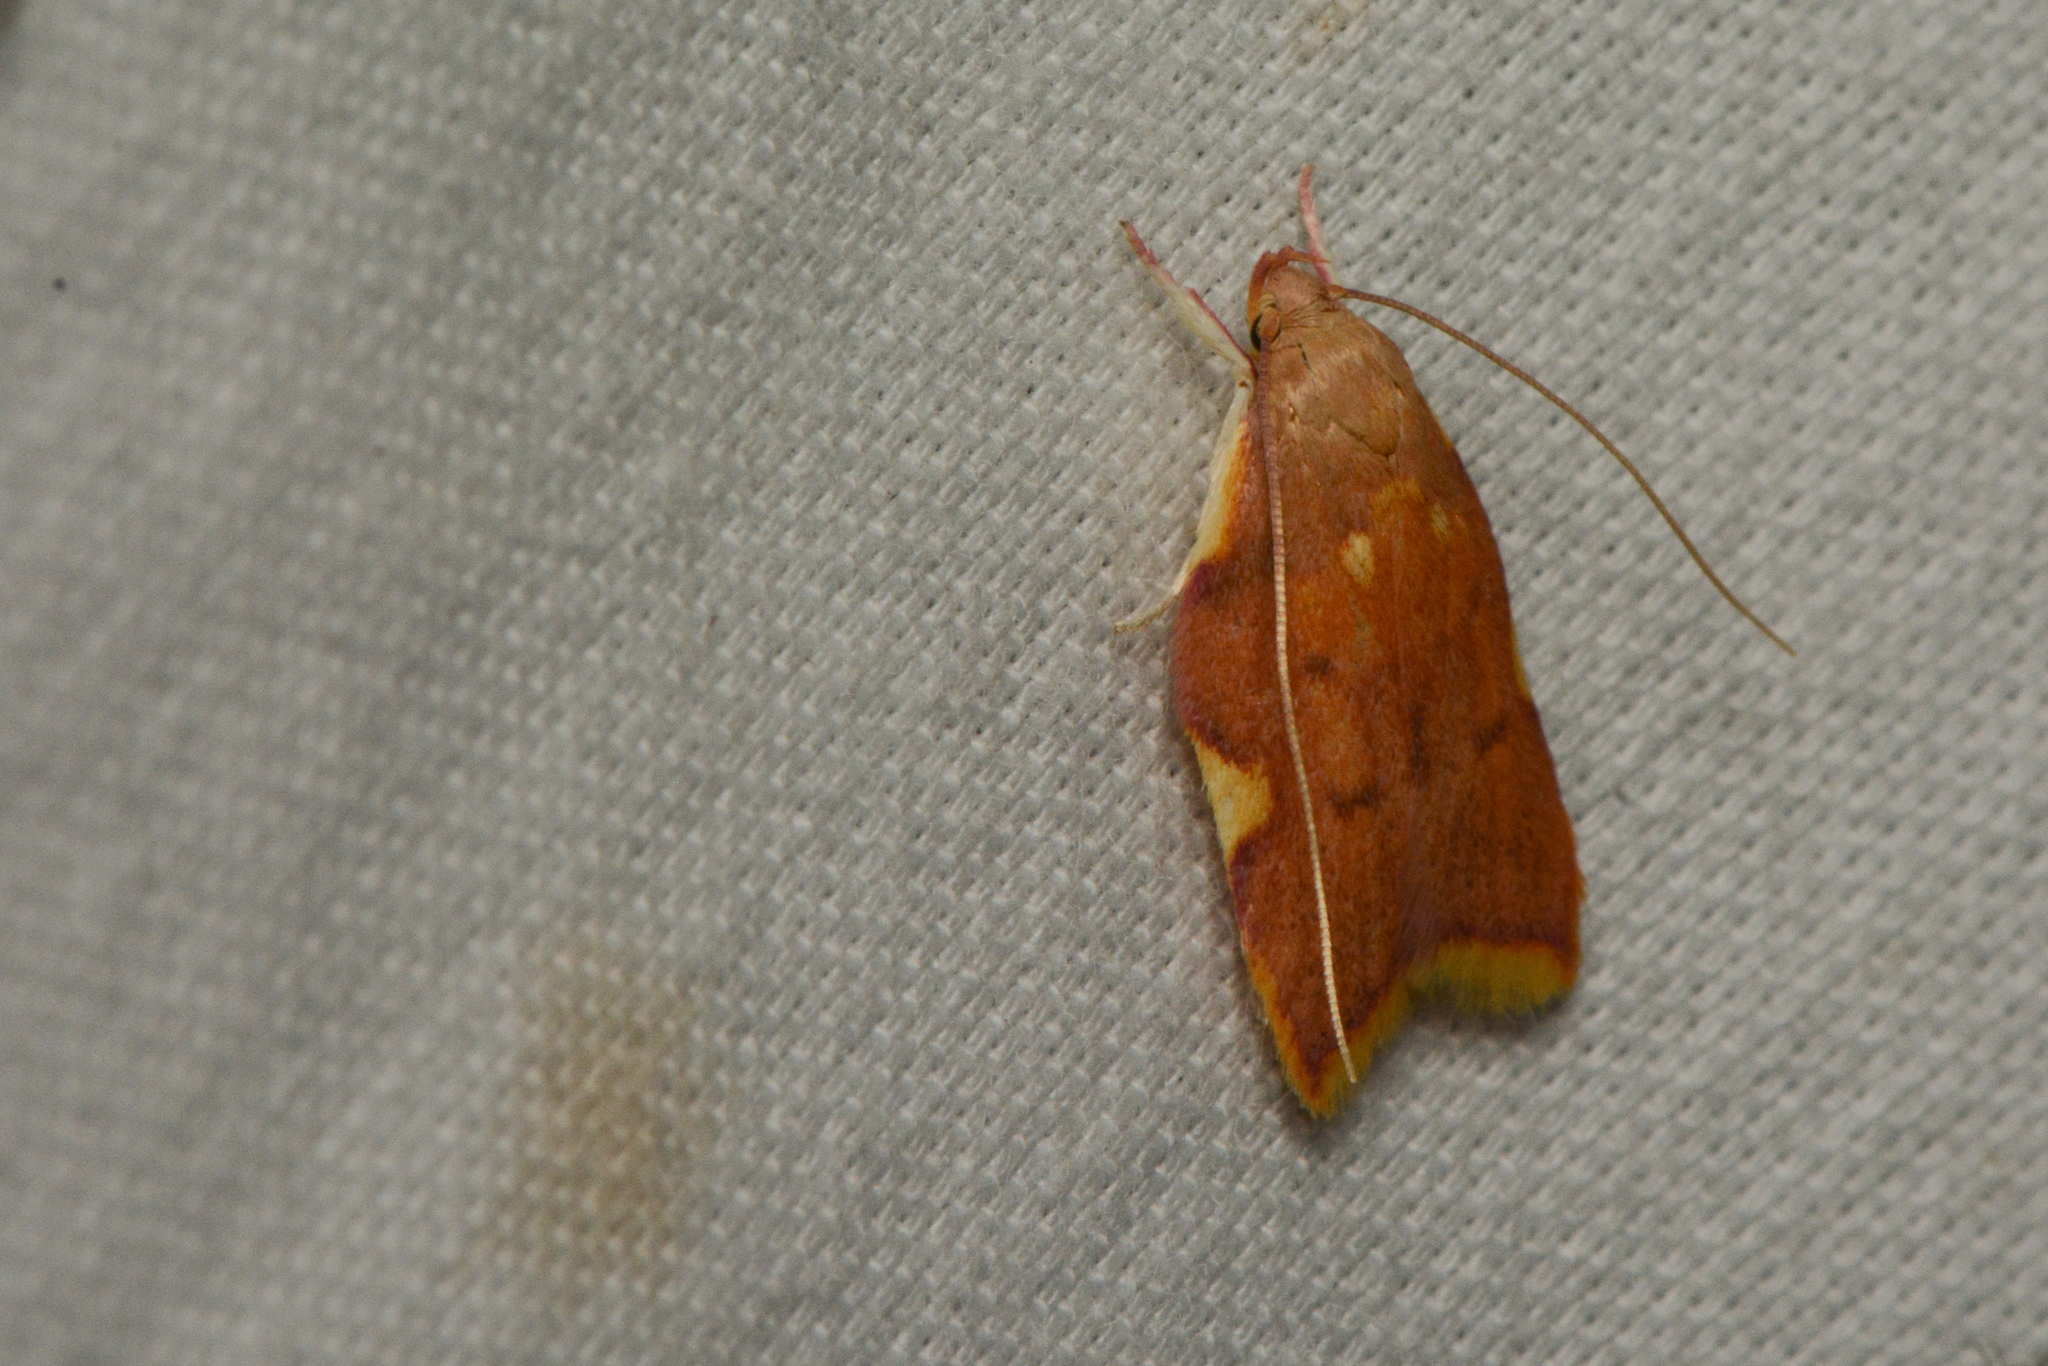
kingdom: Animalia
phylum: Arthropoda
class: Insecta
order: Lepidoptera
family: Peleopodidae
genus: Carcina
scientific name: Carcina quercana
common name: Moth
